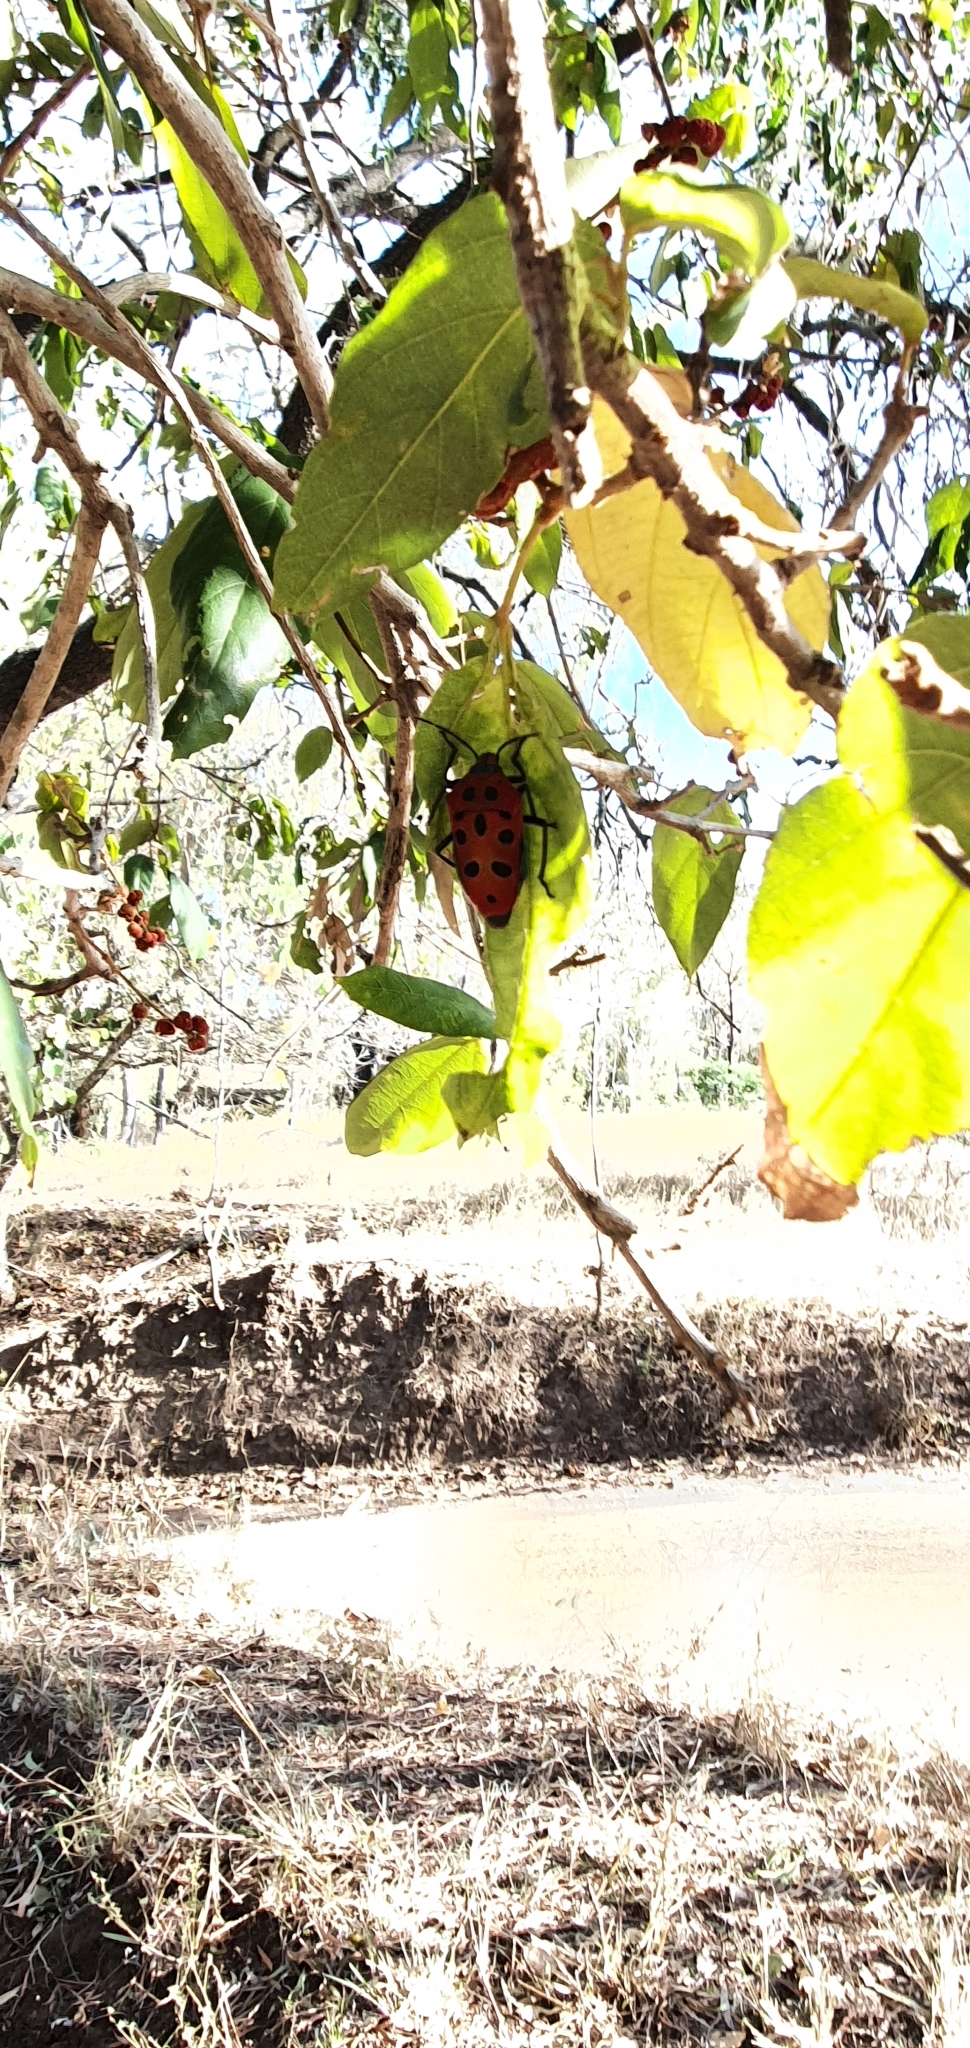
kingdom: Animalia
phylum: Arthropoda
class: Insecta
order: Hemiptera
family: Scutelleridae
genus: Cantao
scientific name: Cantao
